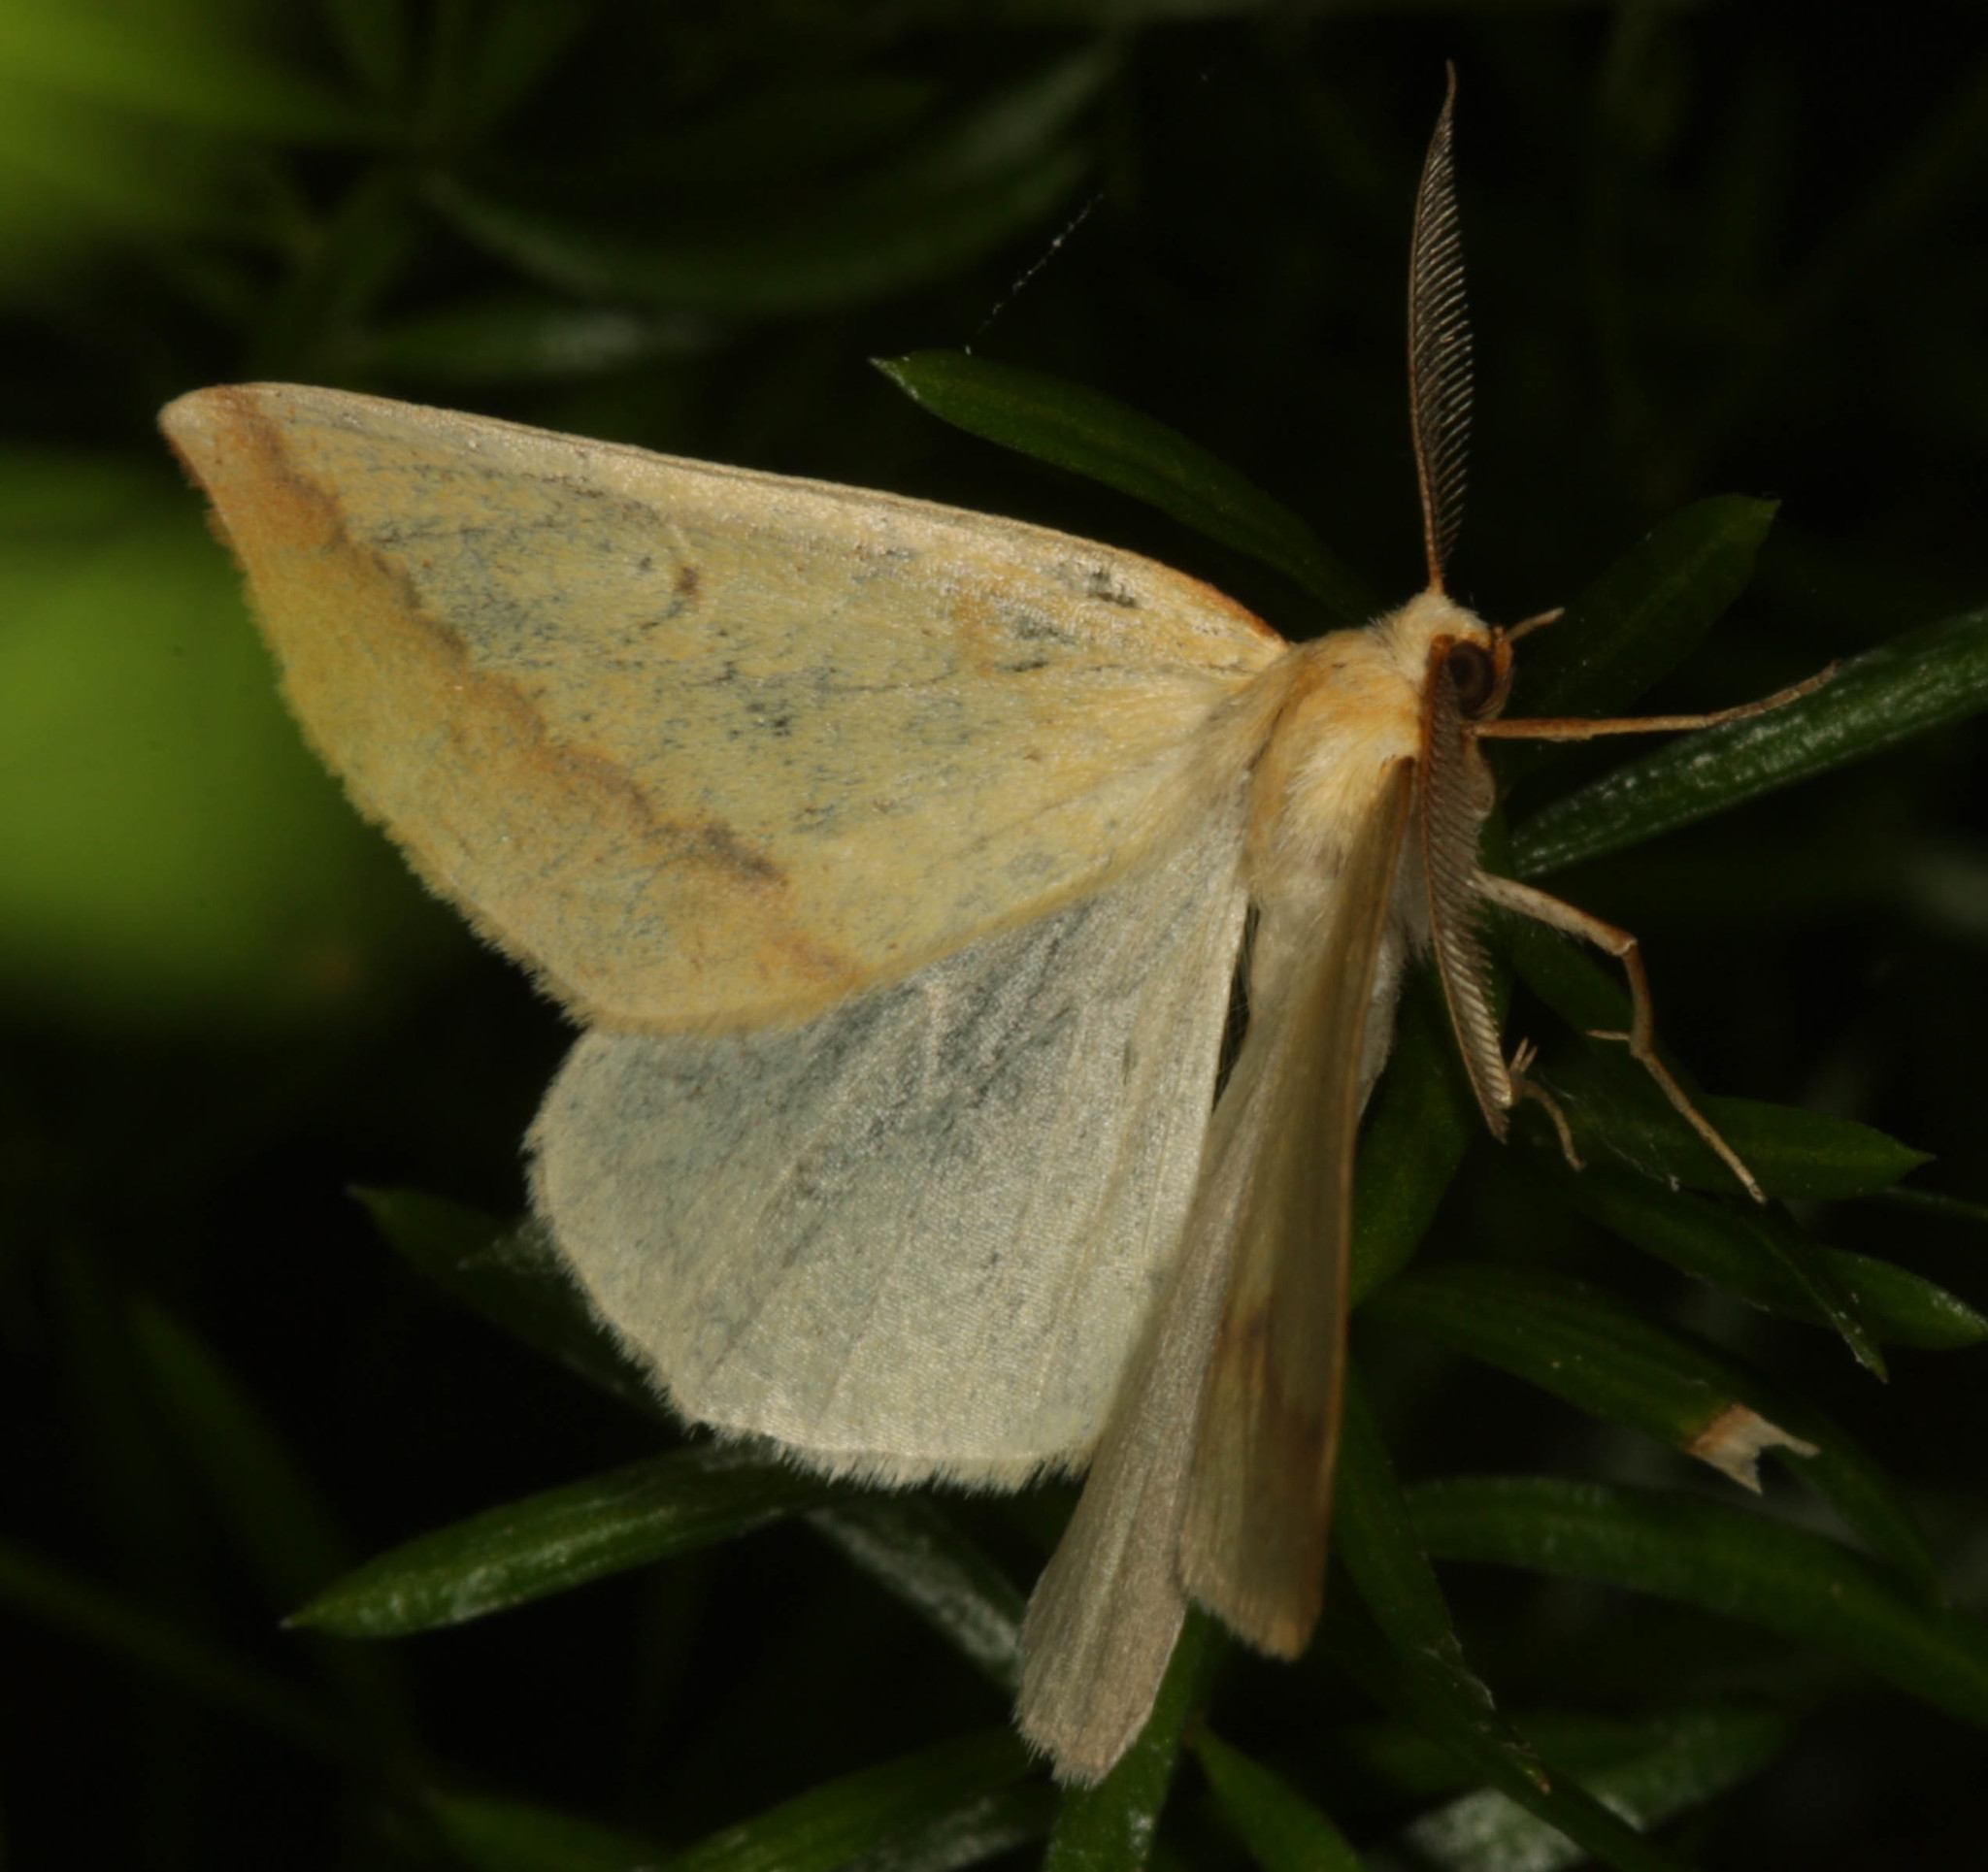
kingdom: Animalia
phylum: Arthropoda
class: Insecta
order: Lepidoptera
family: Geometridae
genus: Neoterpes
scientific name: Neoterpes edwardsata
